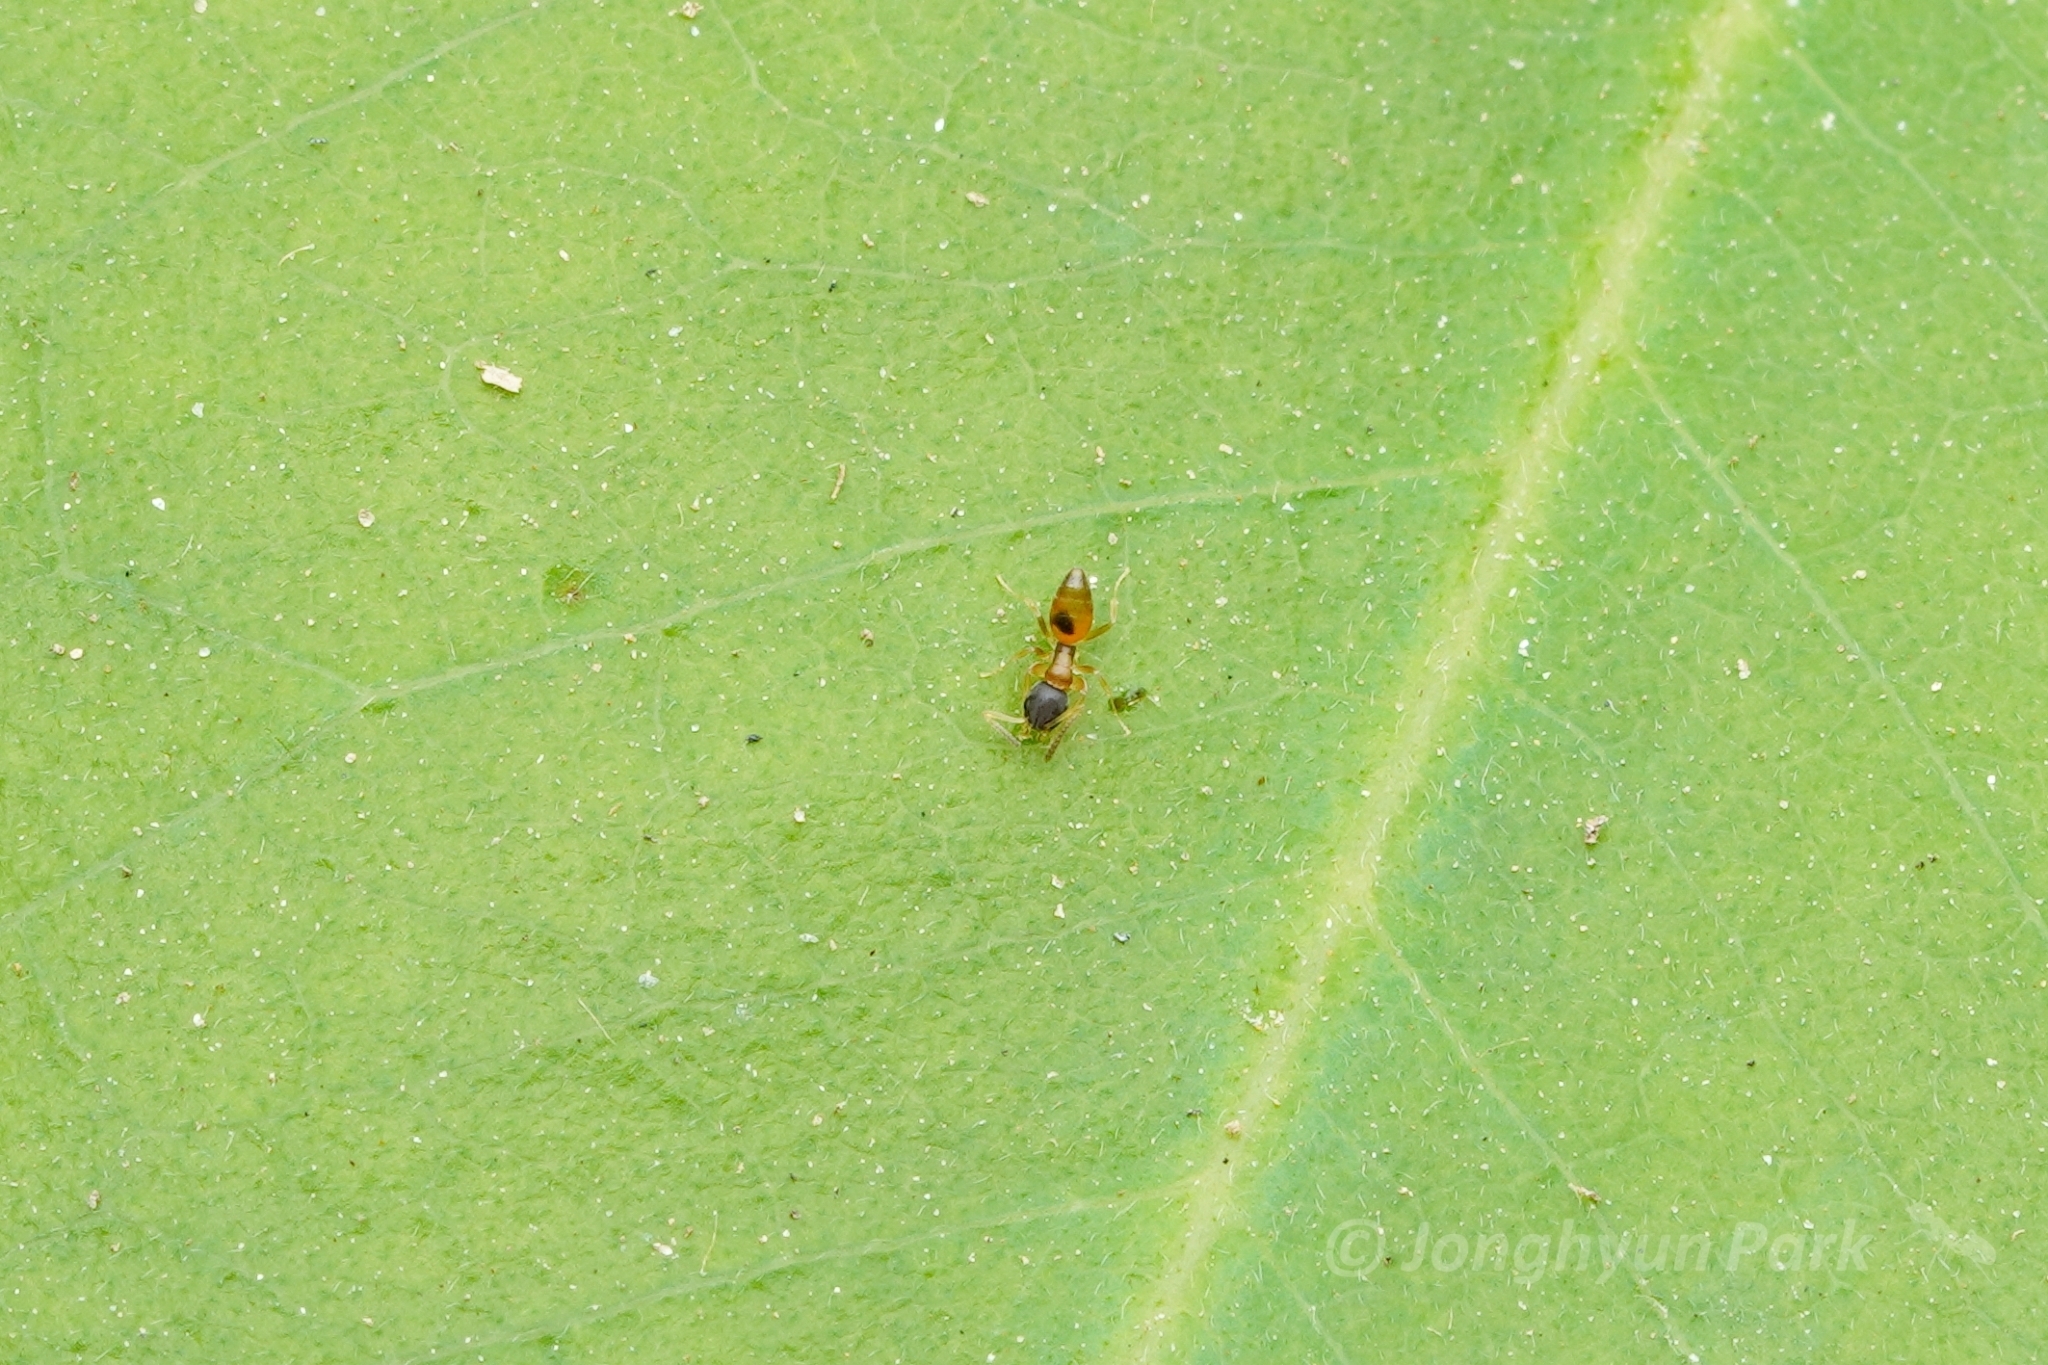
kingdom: Animalia
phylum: Arthropoda
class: Insecta
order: Hymenoptera
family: Formicidae
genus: Tapinoma
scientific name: Tapinoma melanocephalum
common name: Ghost ant
